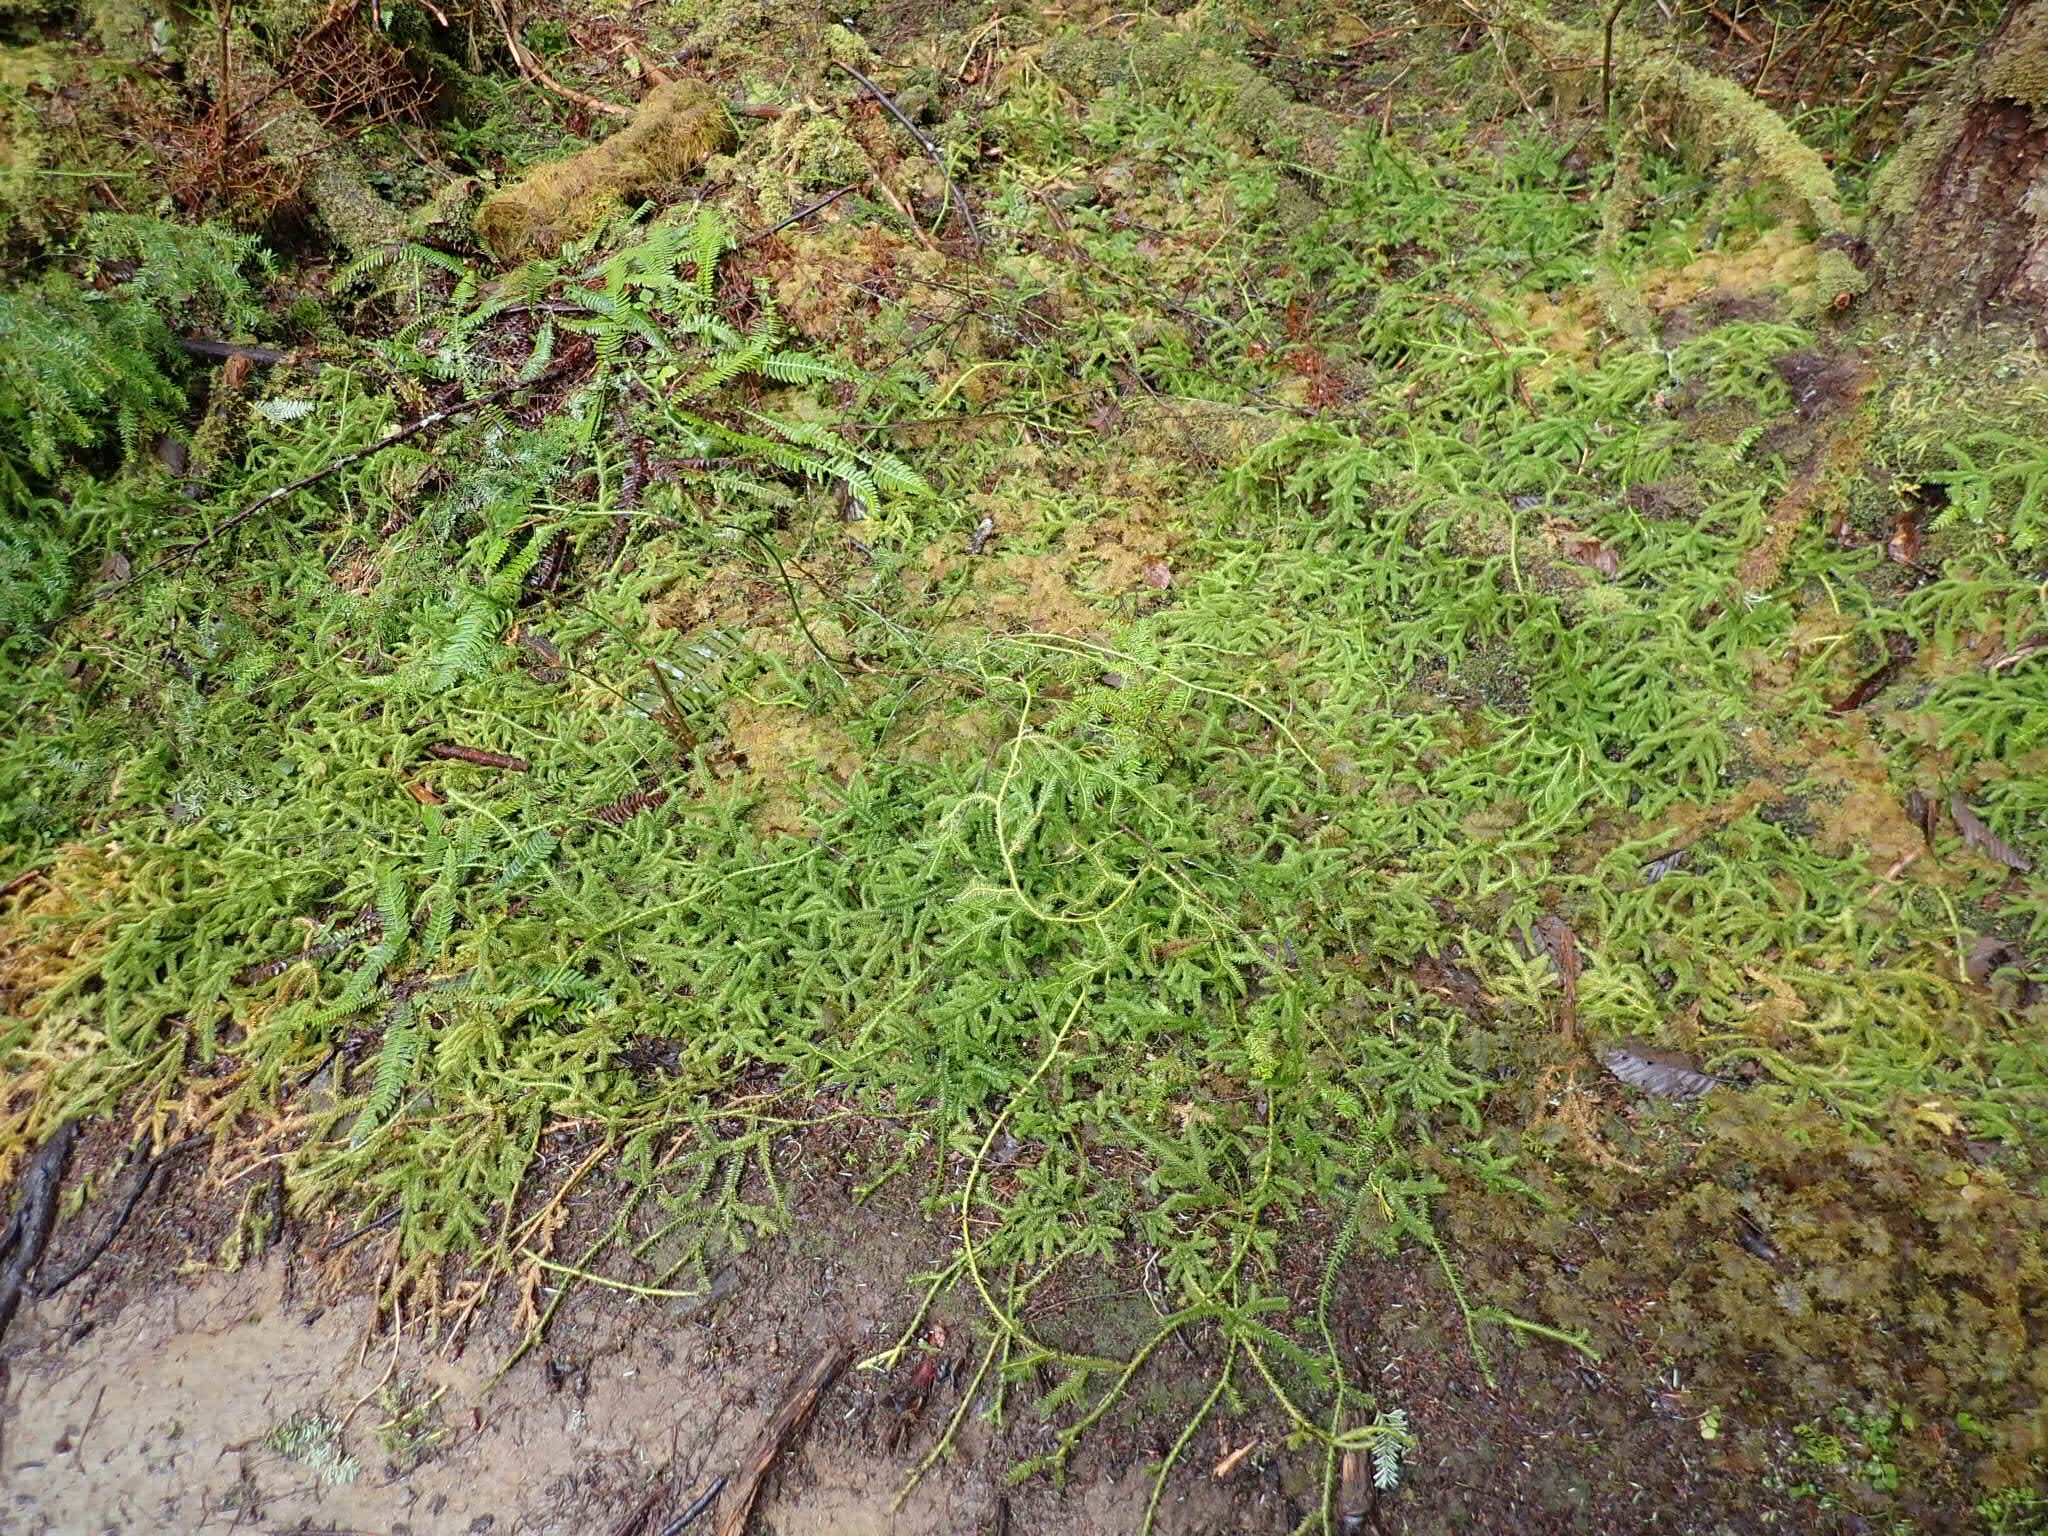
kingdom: Plantae
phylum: Tracheophyta
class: Lycopodiopsida
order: Lycopodiales
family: Lycopodiaceae
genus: Lycopodium
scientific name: Lycopodium clavatum
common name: Stag's-horn clubmoss
